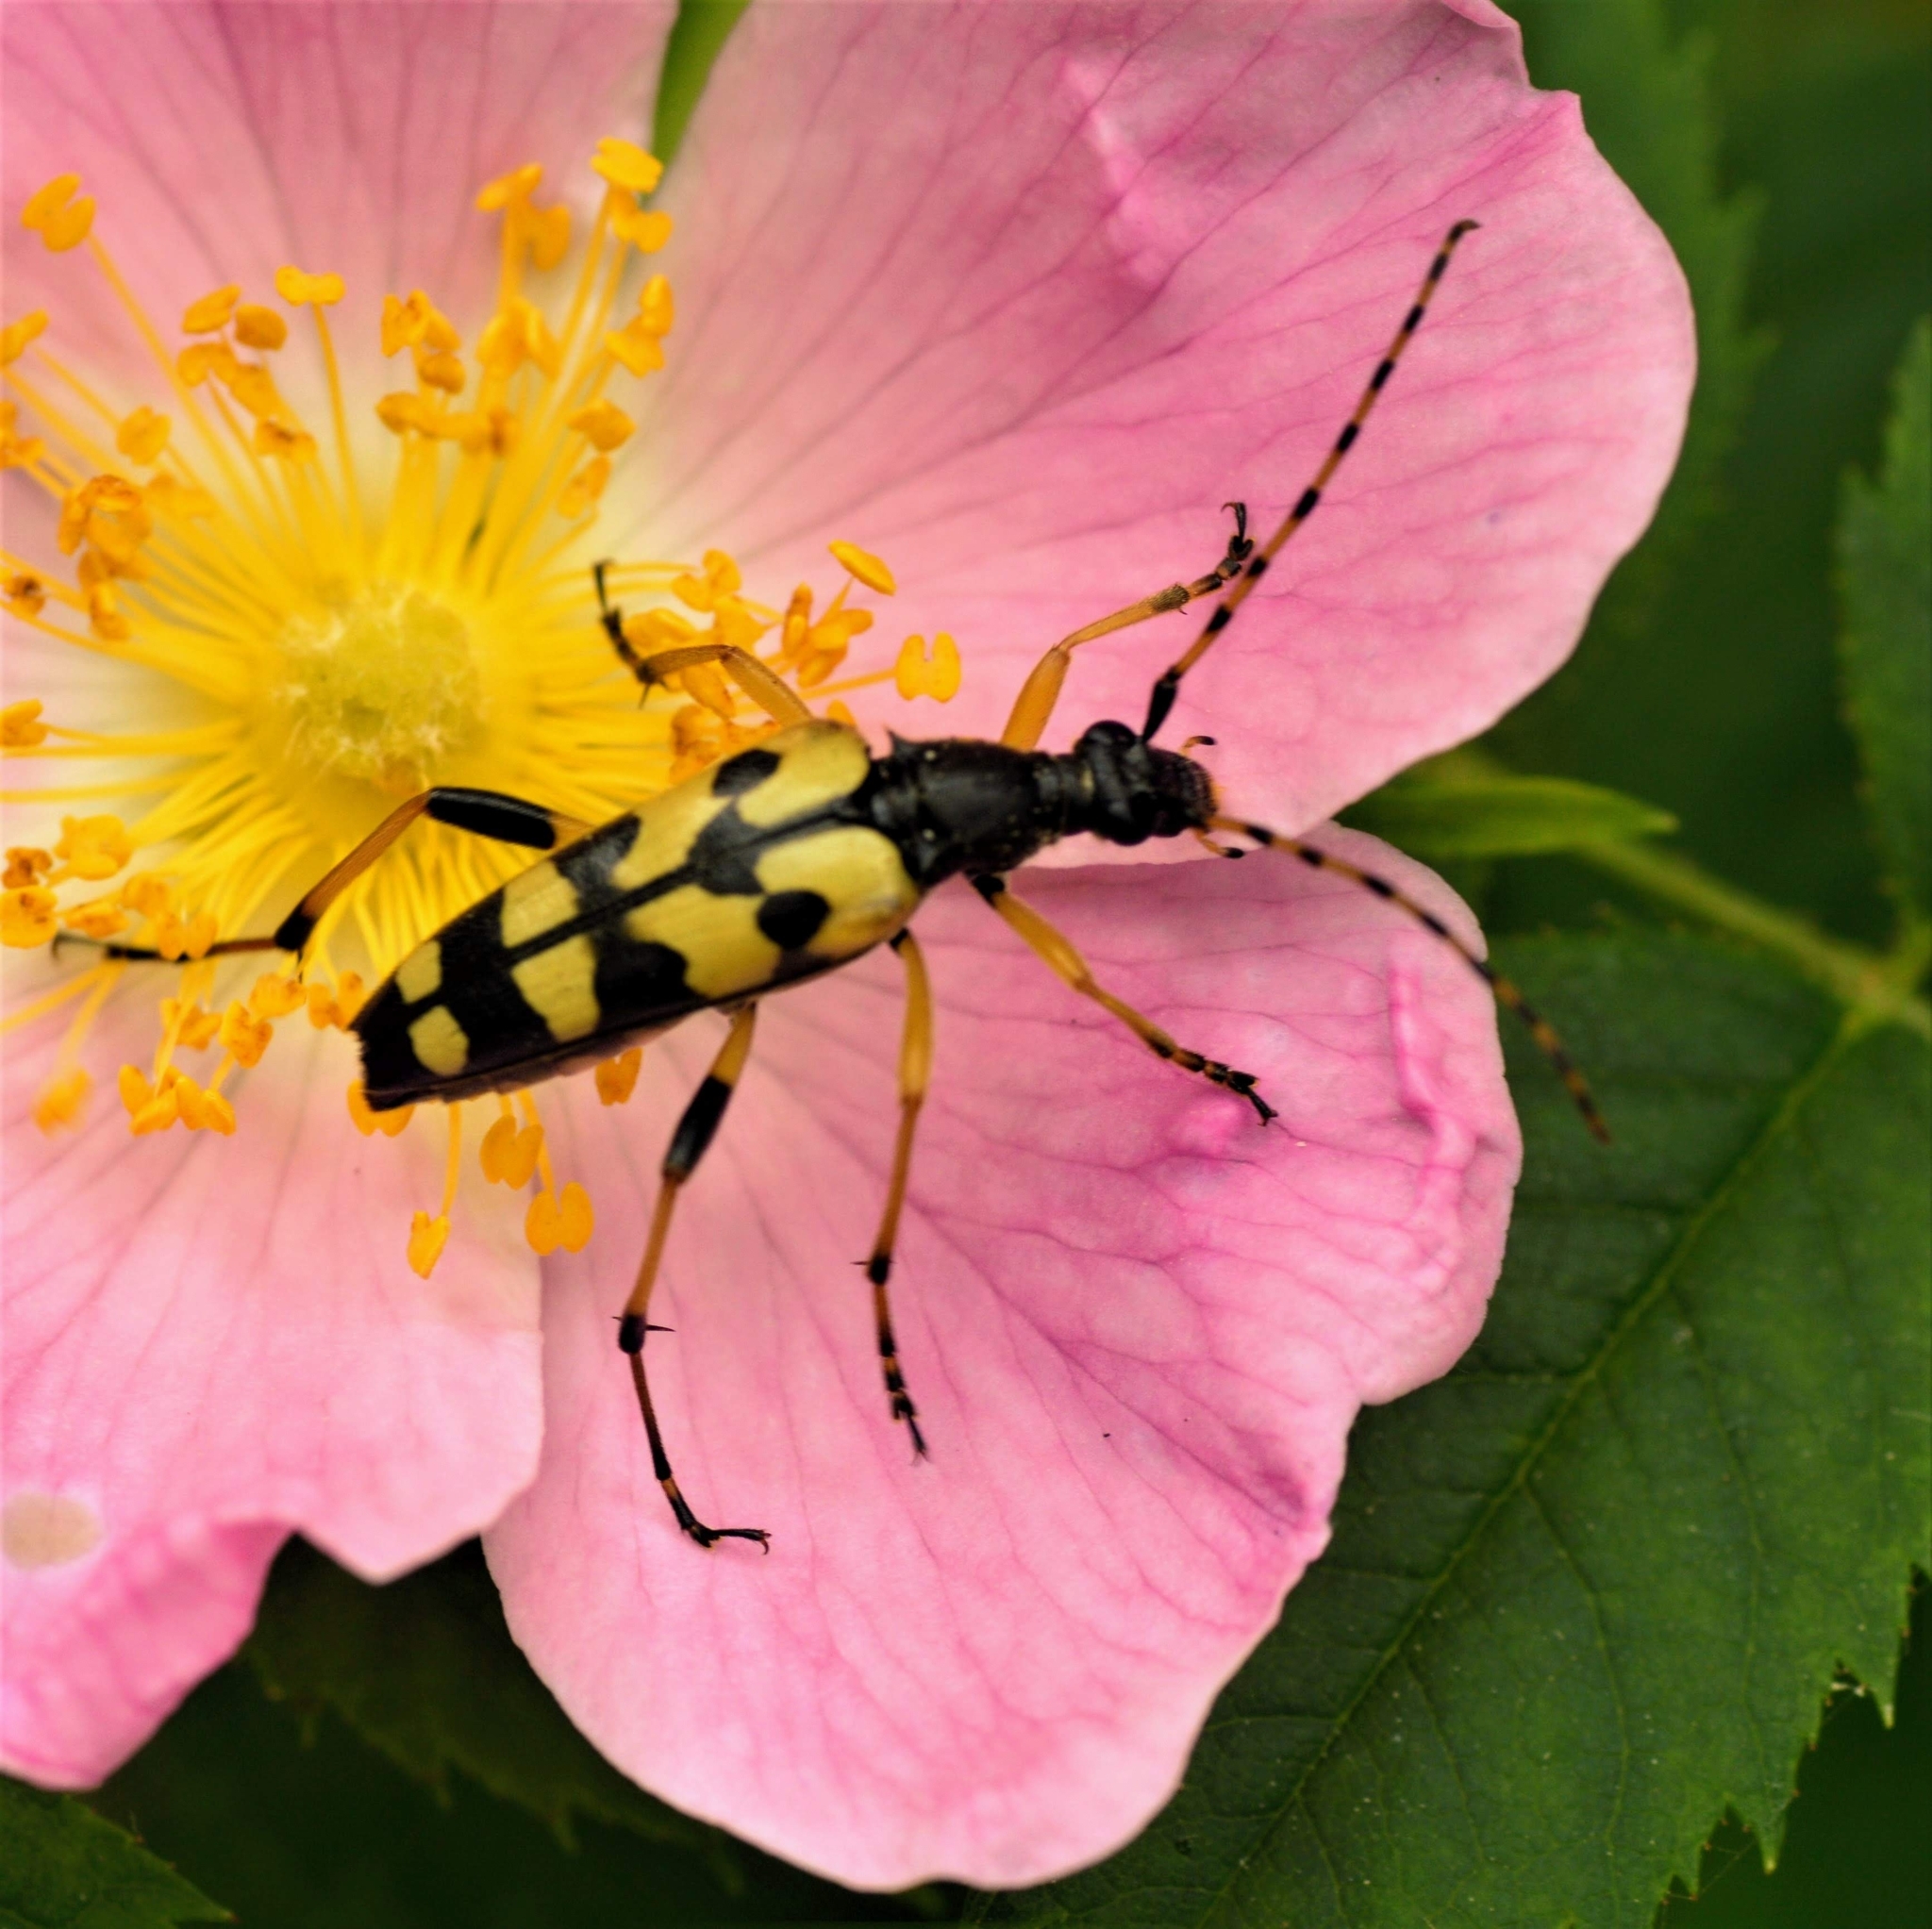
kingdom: Animalia
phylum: Arthropoda
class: Insecta
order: Coleoptera
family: Cerambycidae
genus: Rutpela
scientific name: Rutpela maculata
